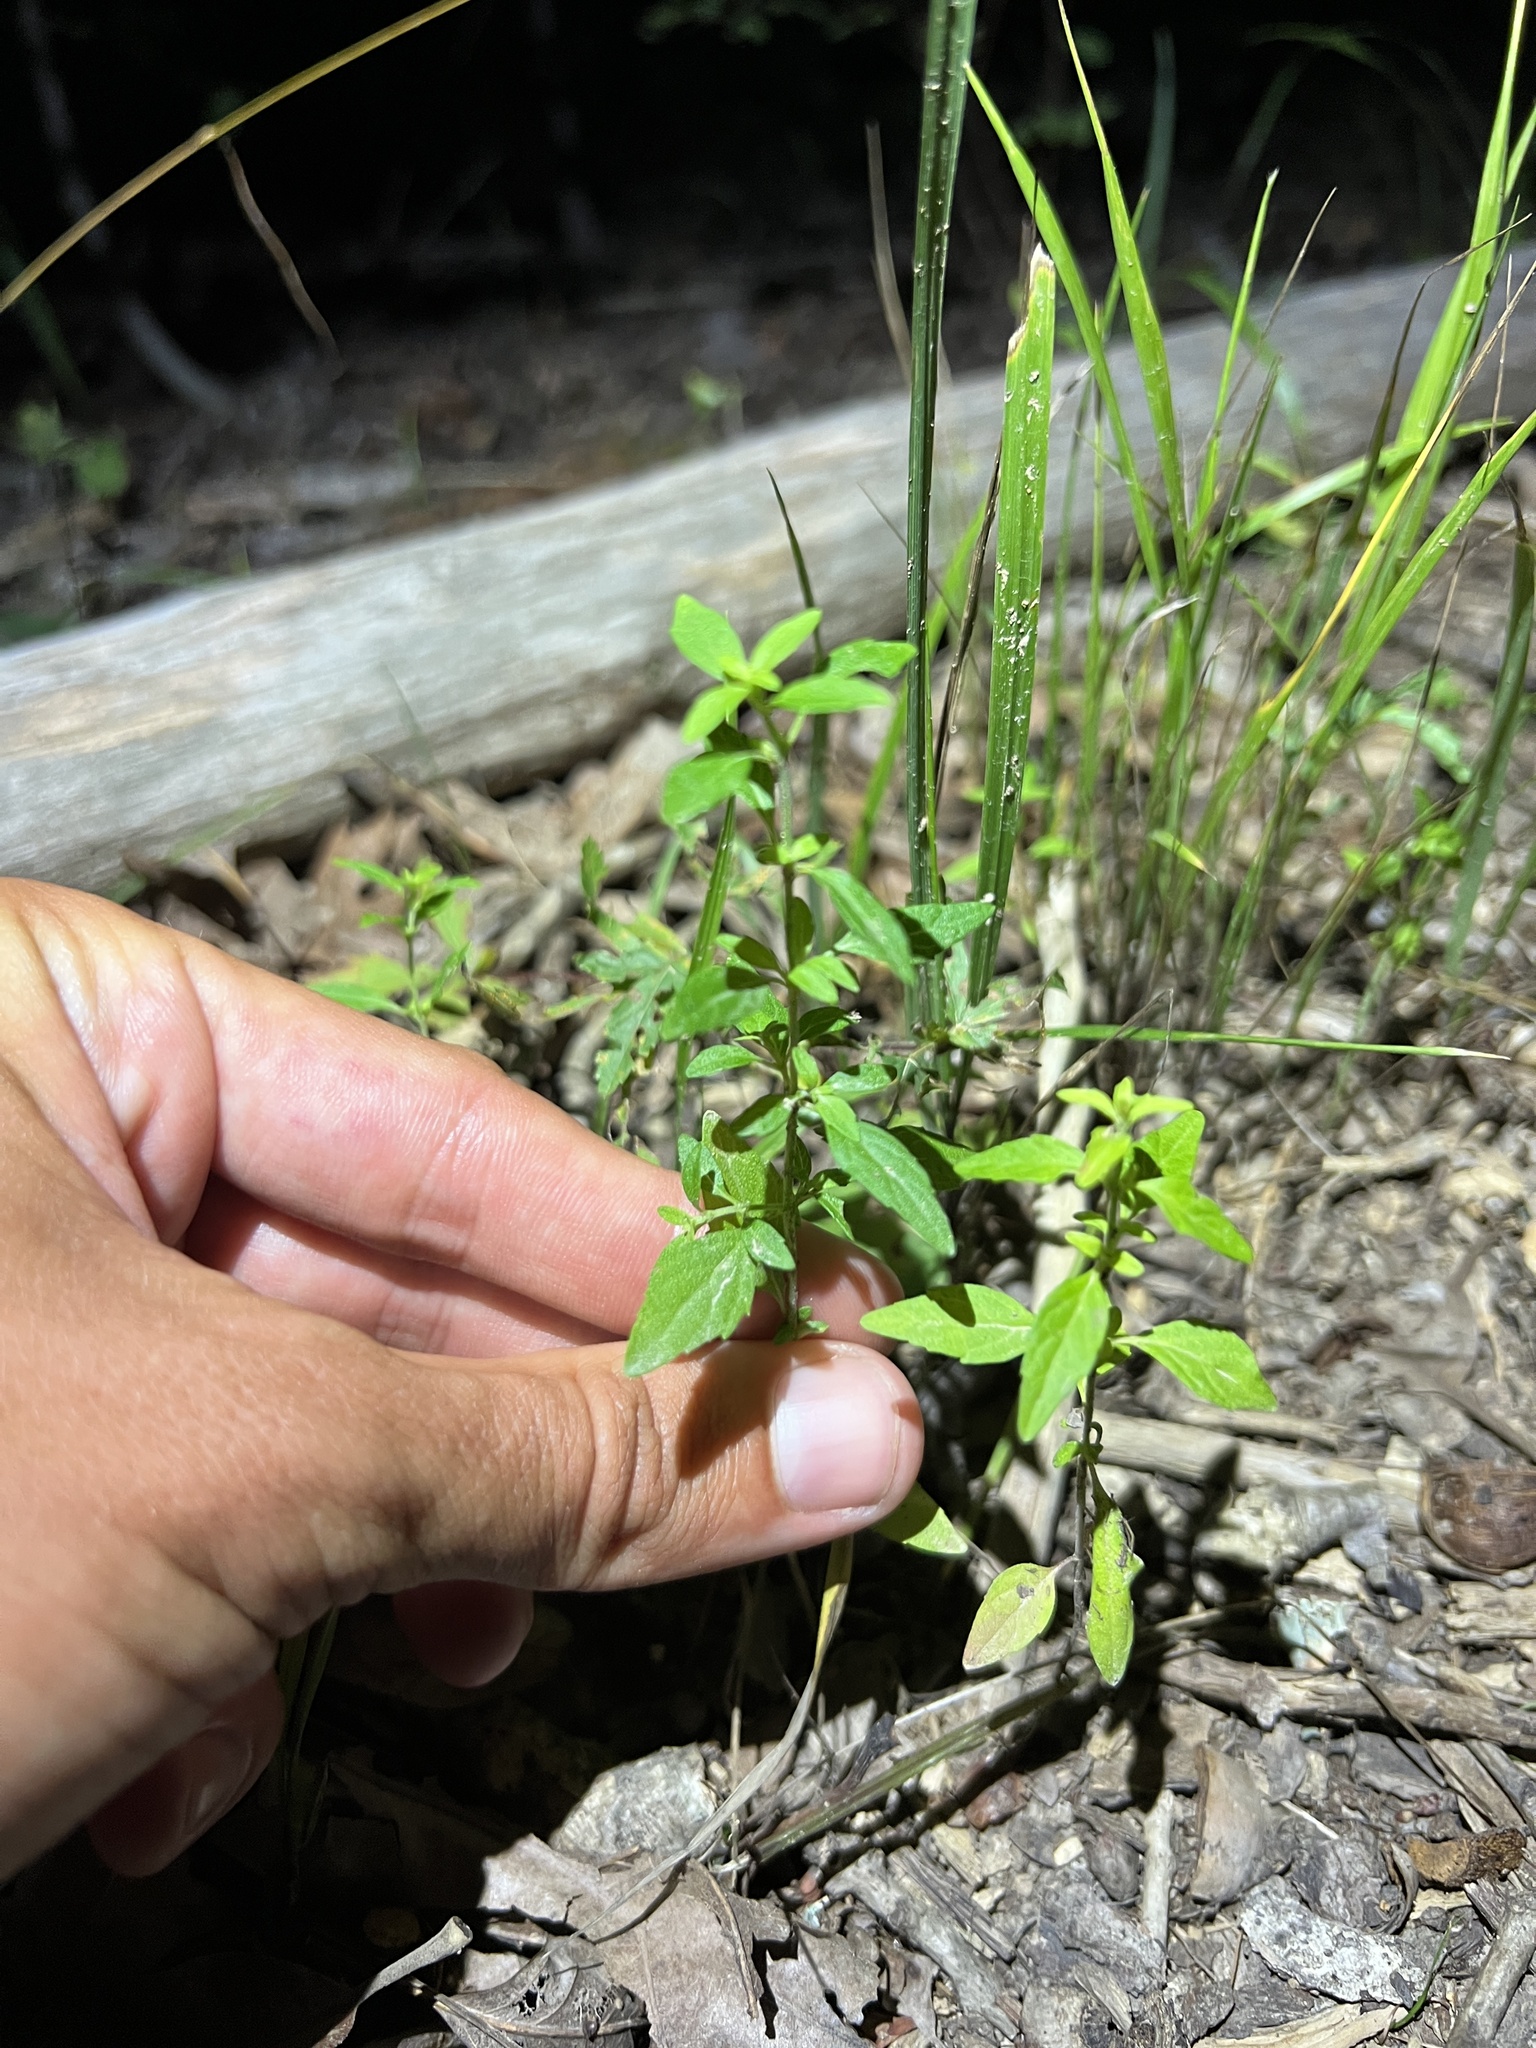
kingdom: Plantae
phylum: Tracheophyta
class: Magnoliopsida
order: Lamiales
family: Lamiaceae
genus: Hedeoma
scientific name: Hedeoma pulegioides
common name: American false pennyroyal
